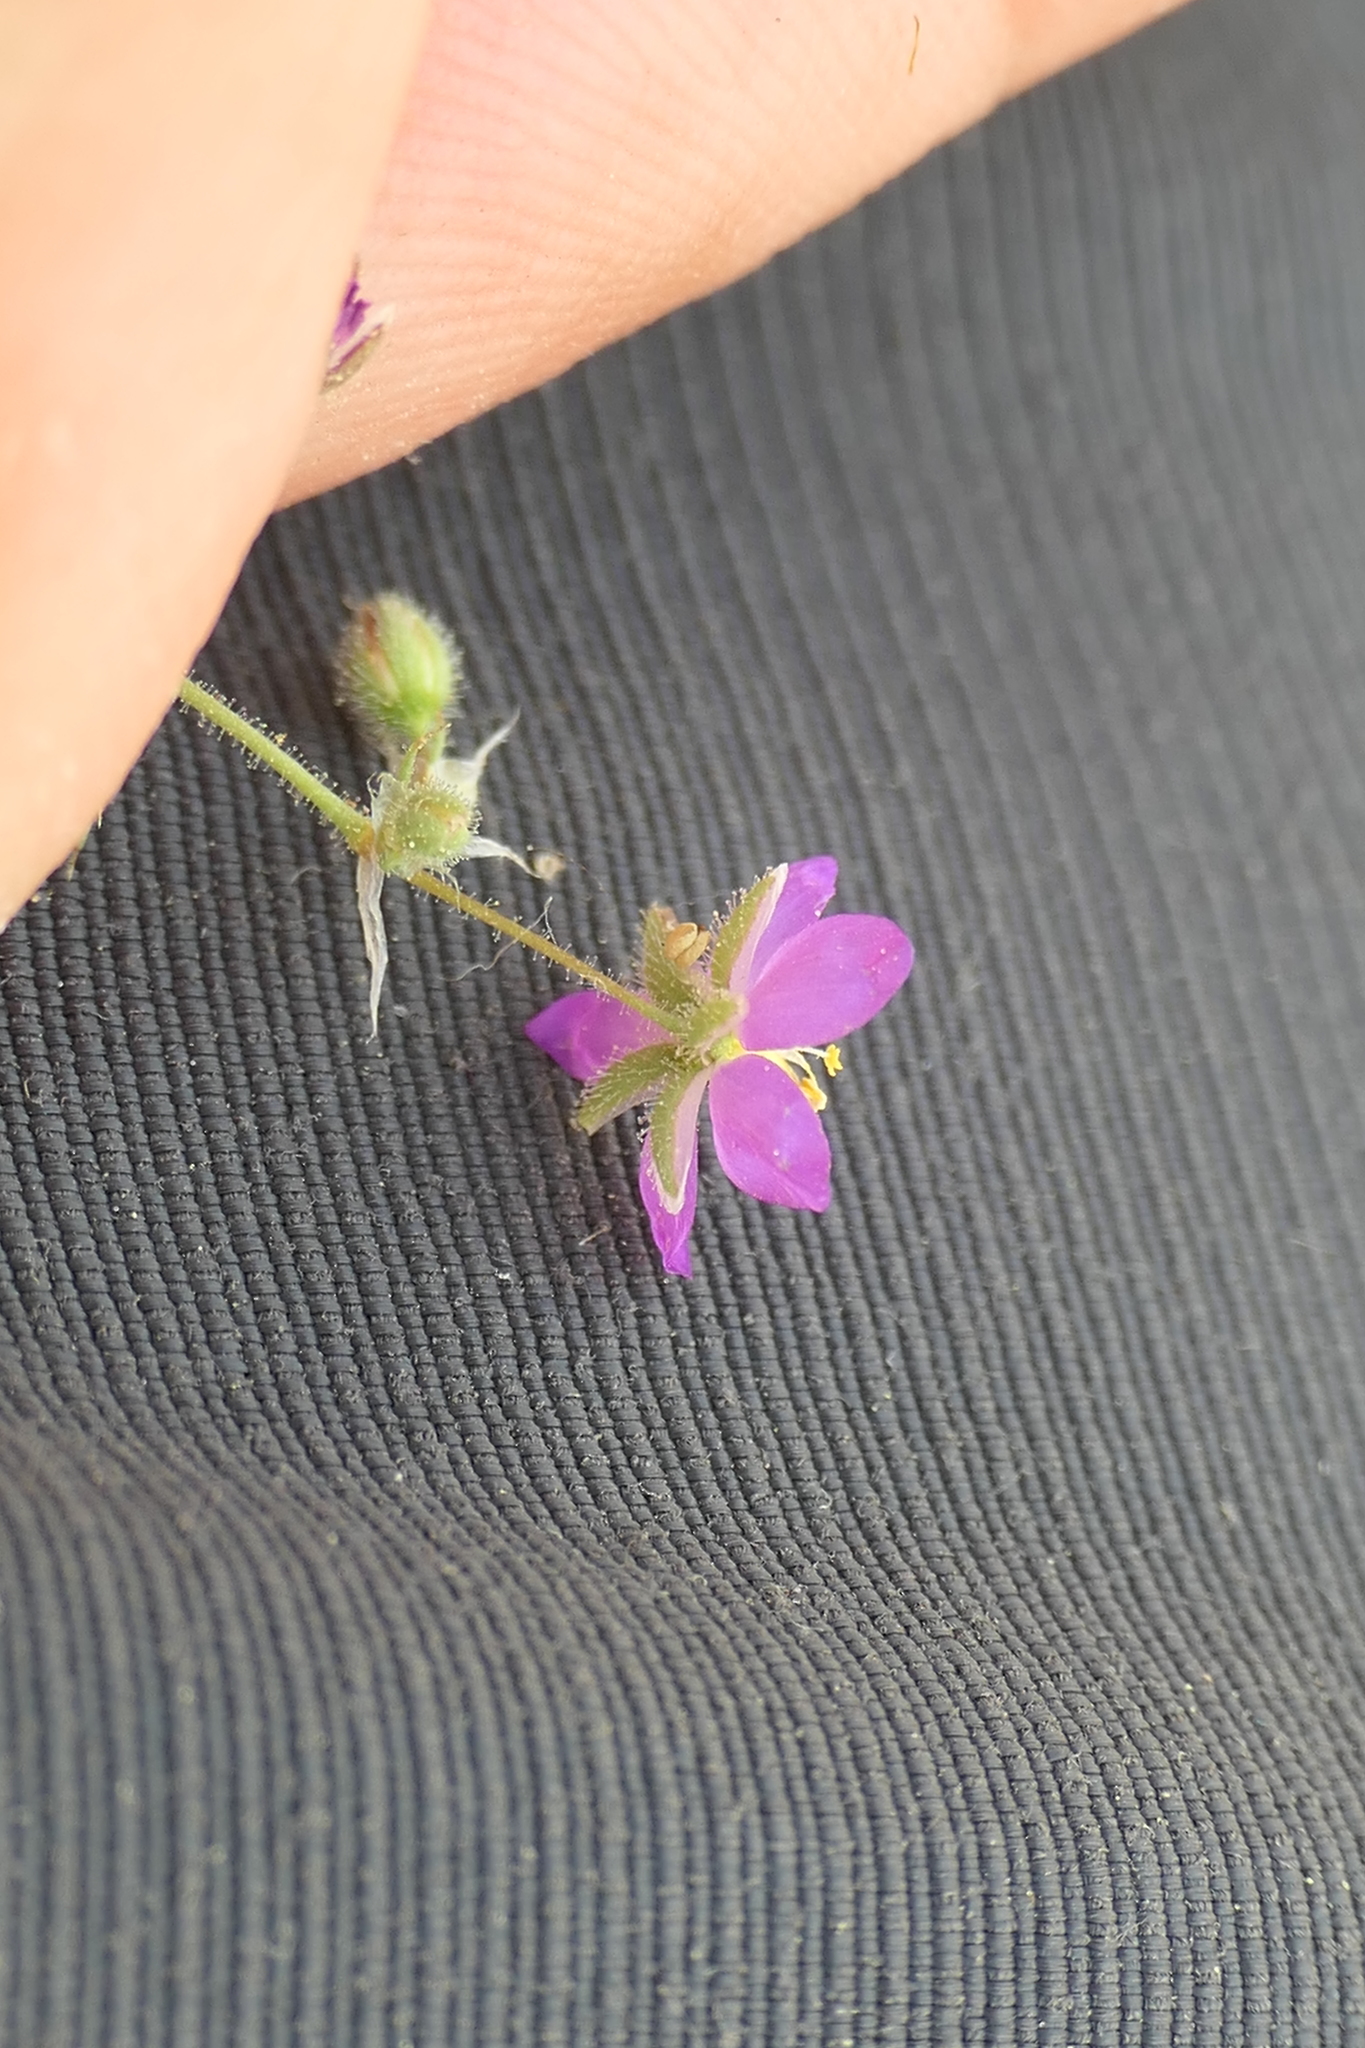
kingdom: Plantae
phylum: Tracheophyta
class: Magnoliopsida
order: Caryophyllales
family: Caryophyllaceae
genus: Spergularia
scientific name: Spergularia purpurea
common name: Purple sandspurry
